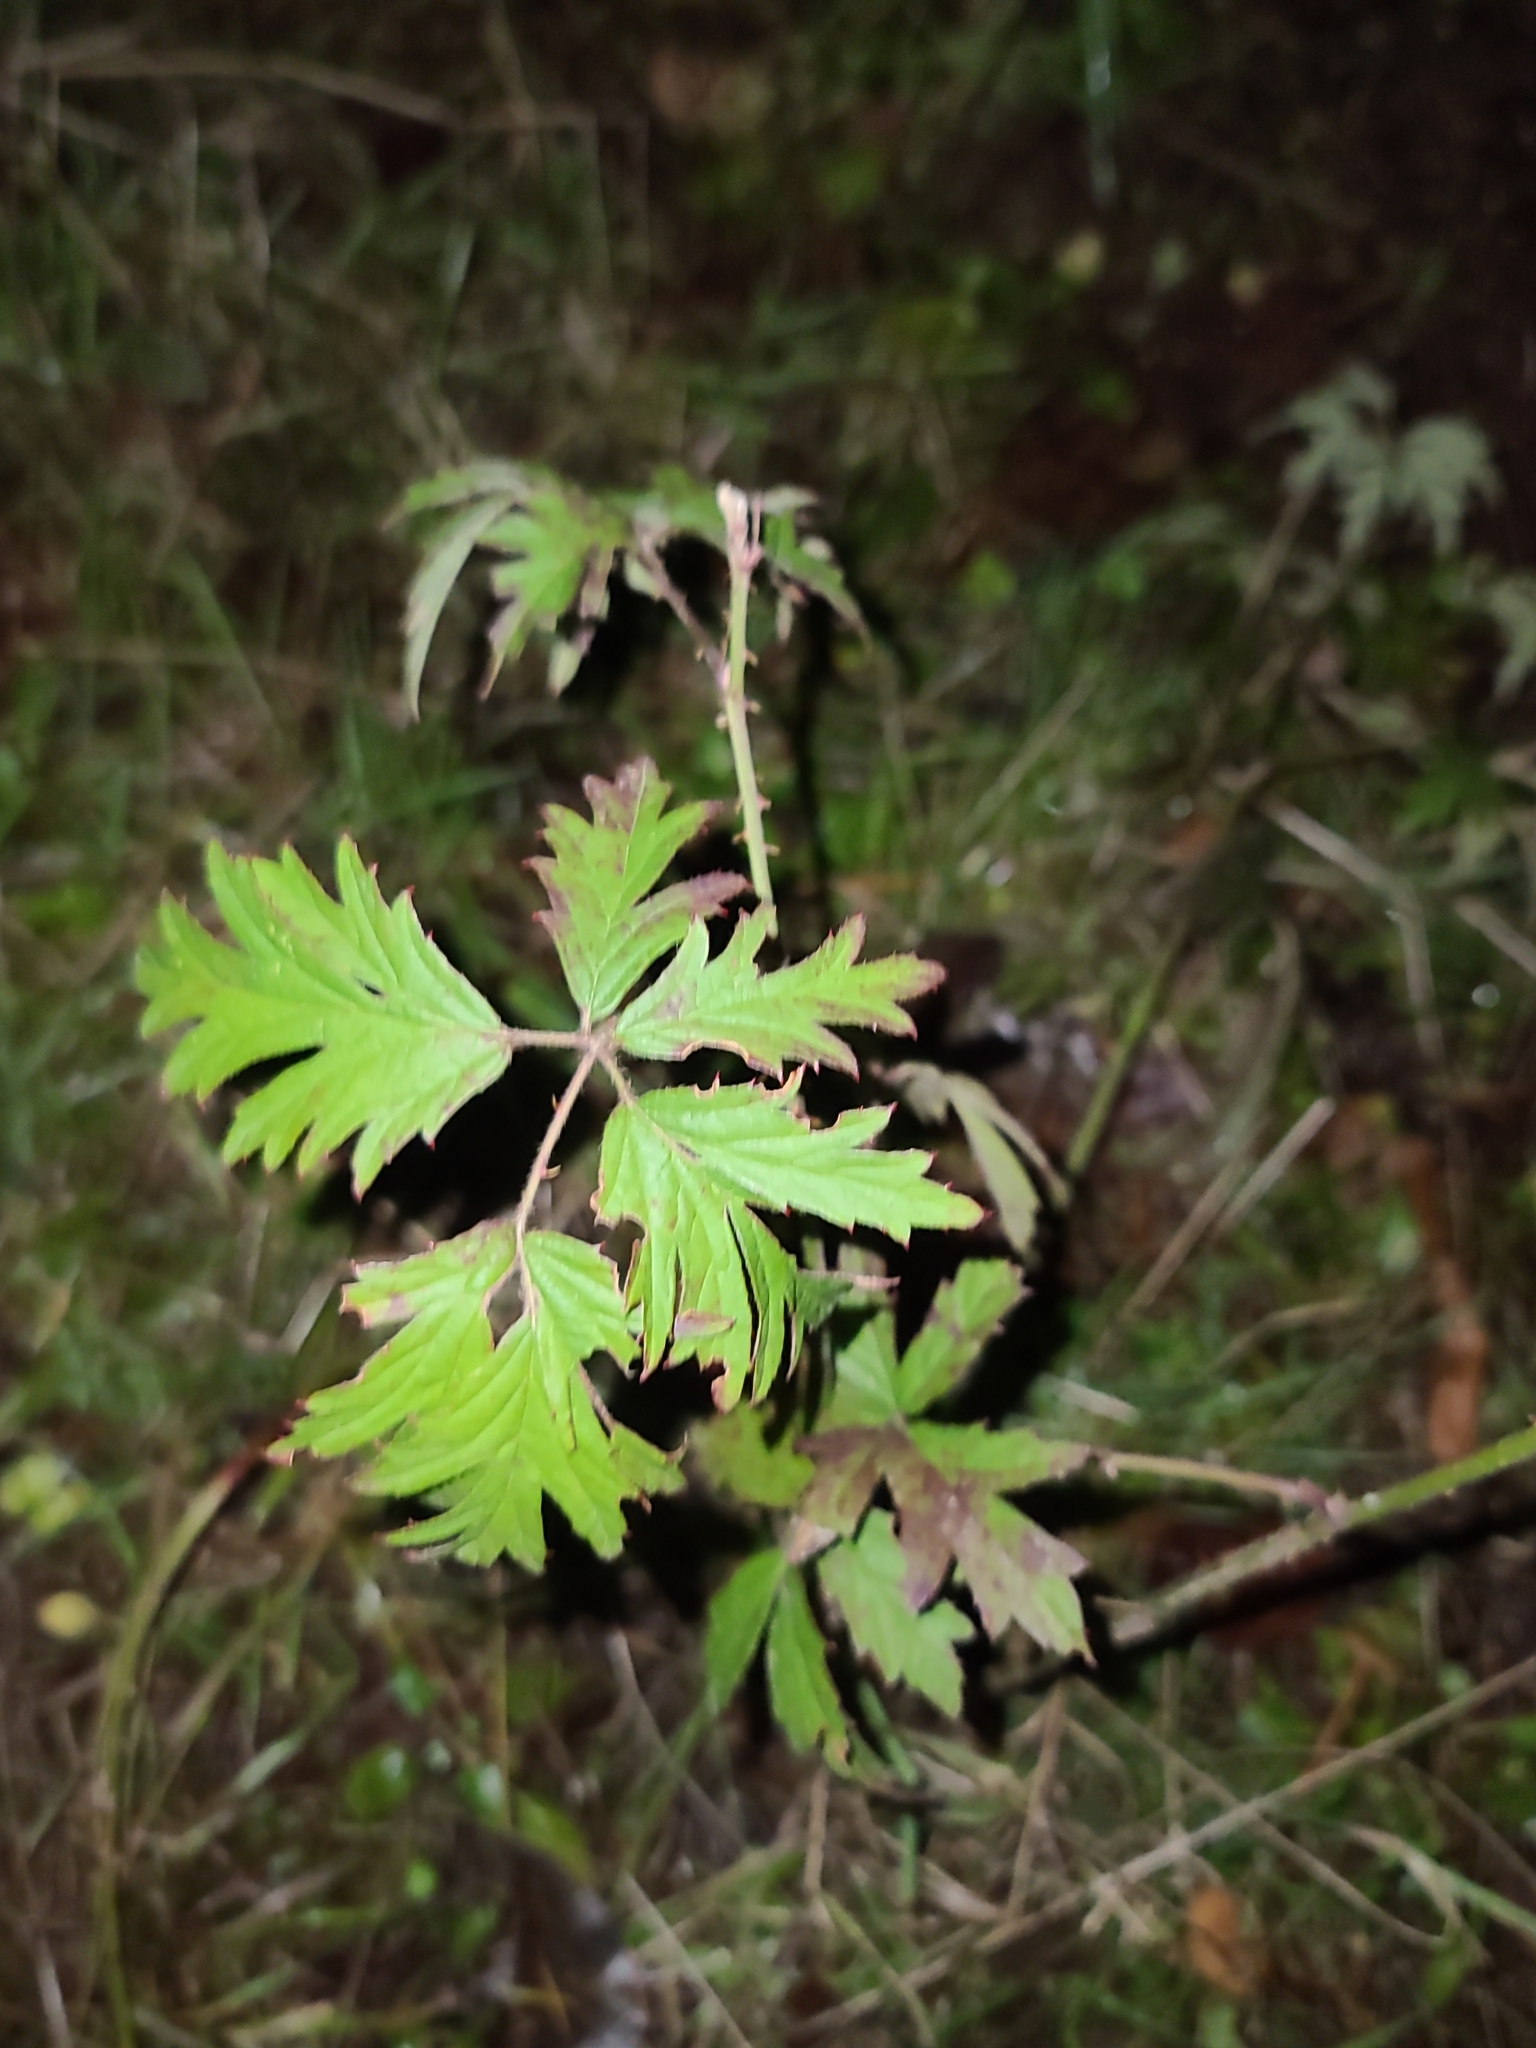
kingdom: Plantae
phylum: Tracheophyta
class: Magnoliopsida
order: Rosales
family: Rosaceae
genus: Rubus
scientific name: Rubus laciniatus
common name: Evergreen blackberry
